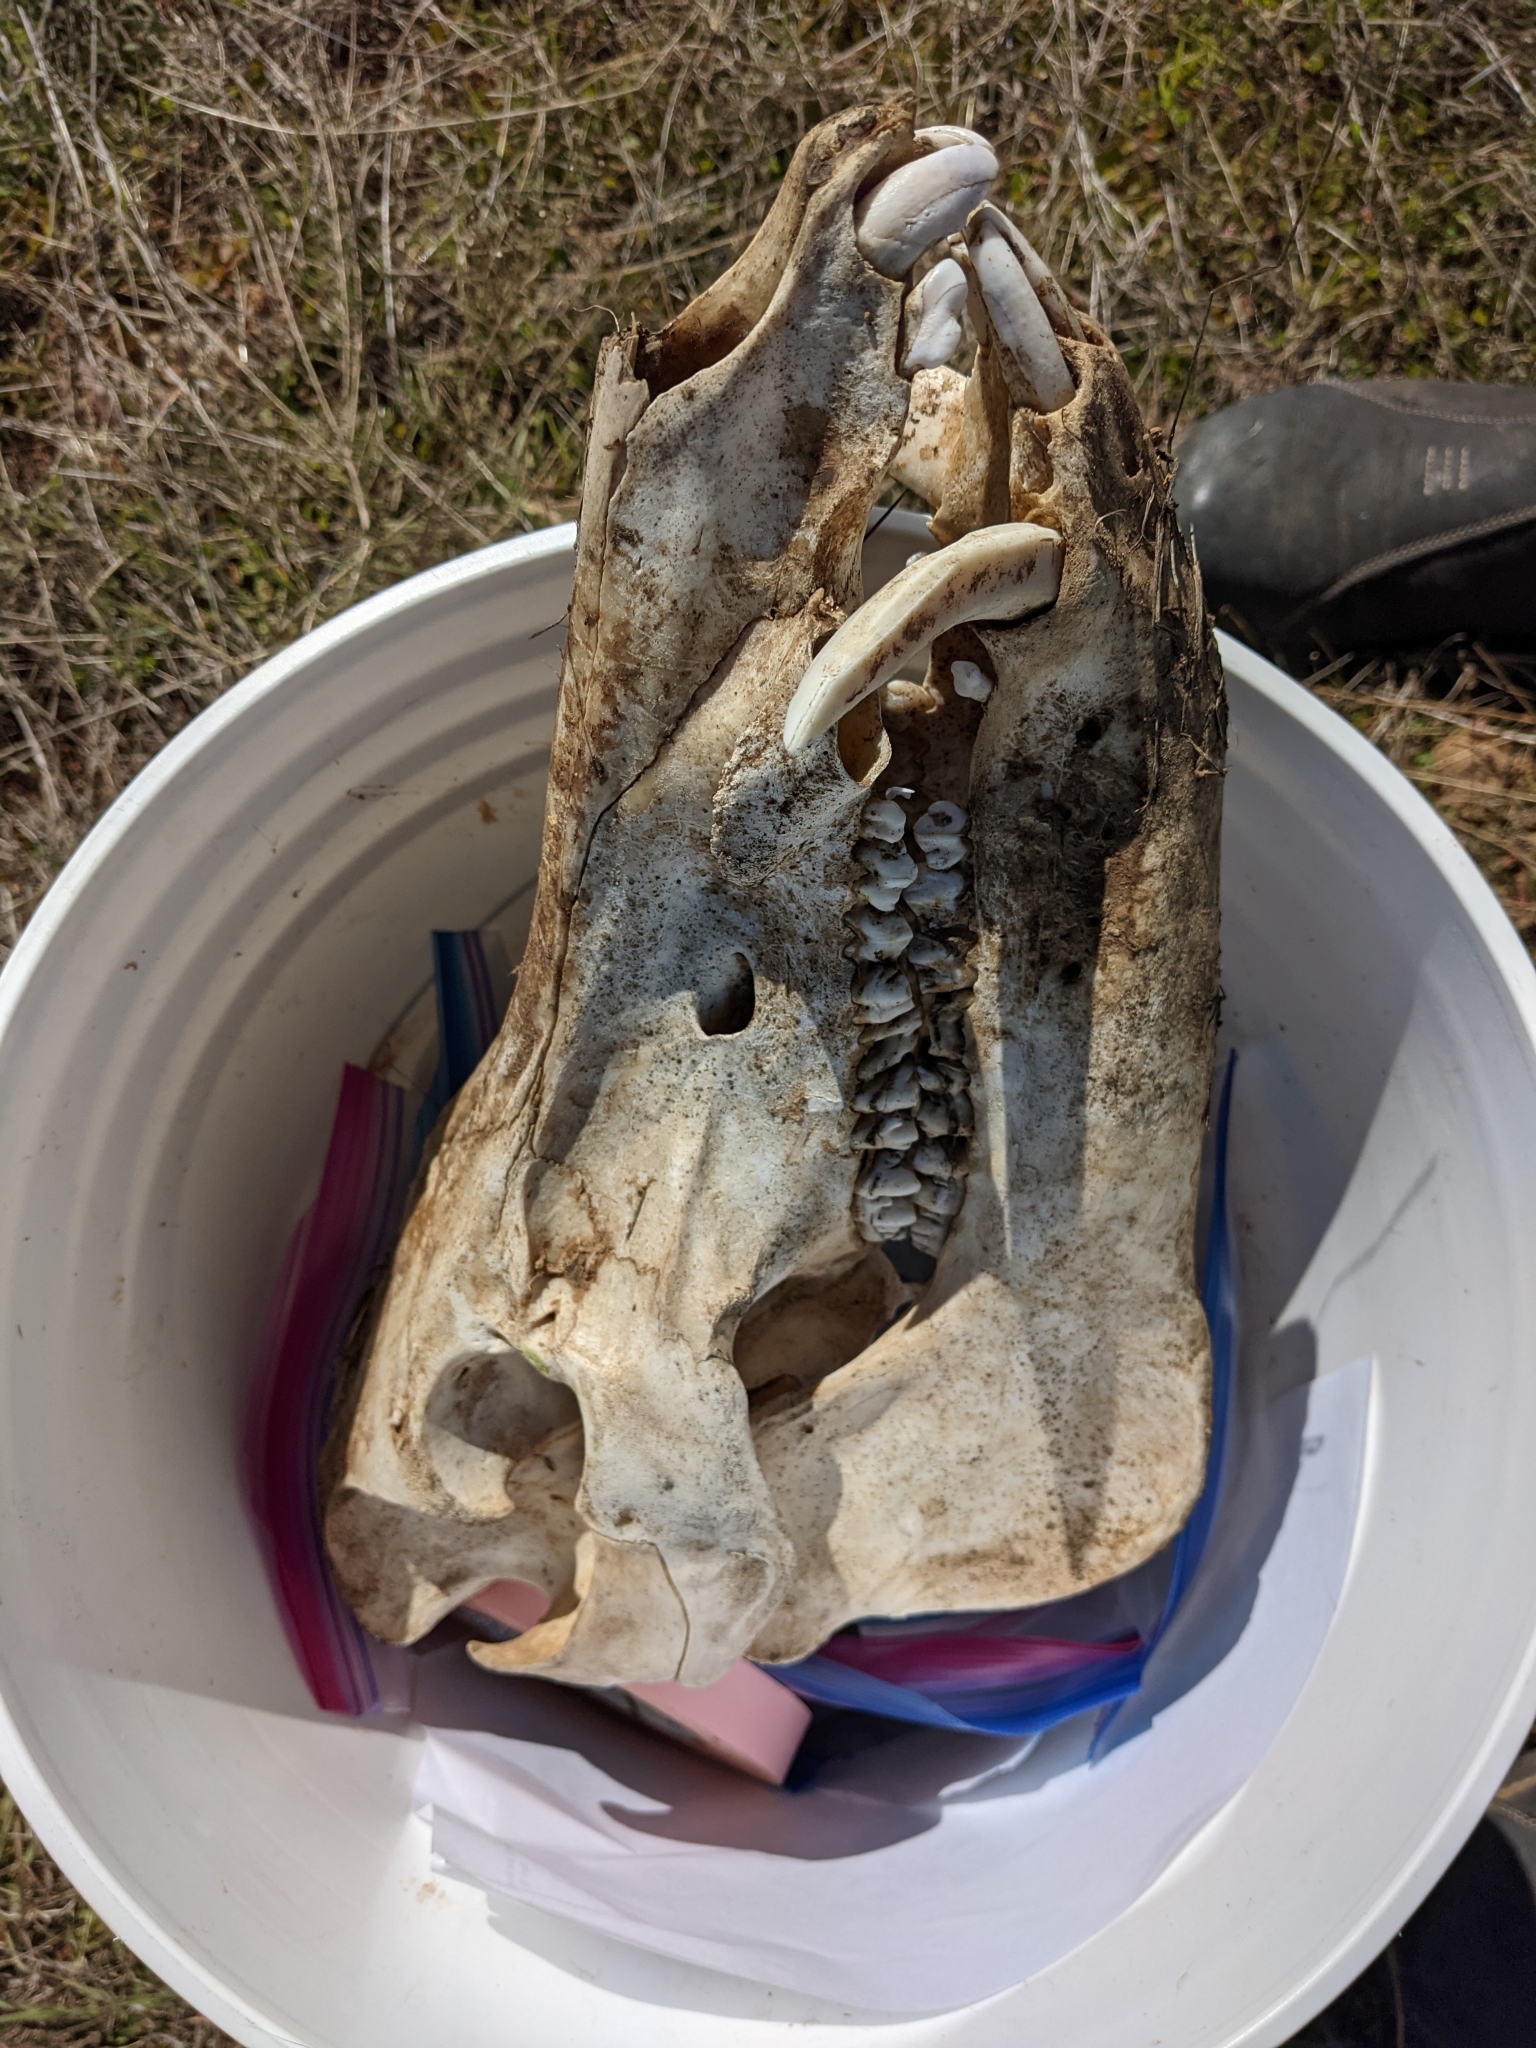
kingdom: Animalia
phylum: Chordata
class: Mammalia
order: Artiodactyla
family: Suidae
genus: Sus
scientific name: Sus scrofa
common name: Wild boar
